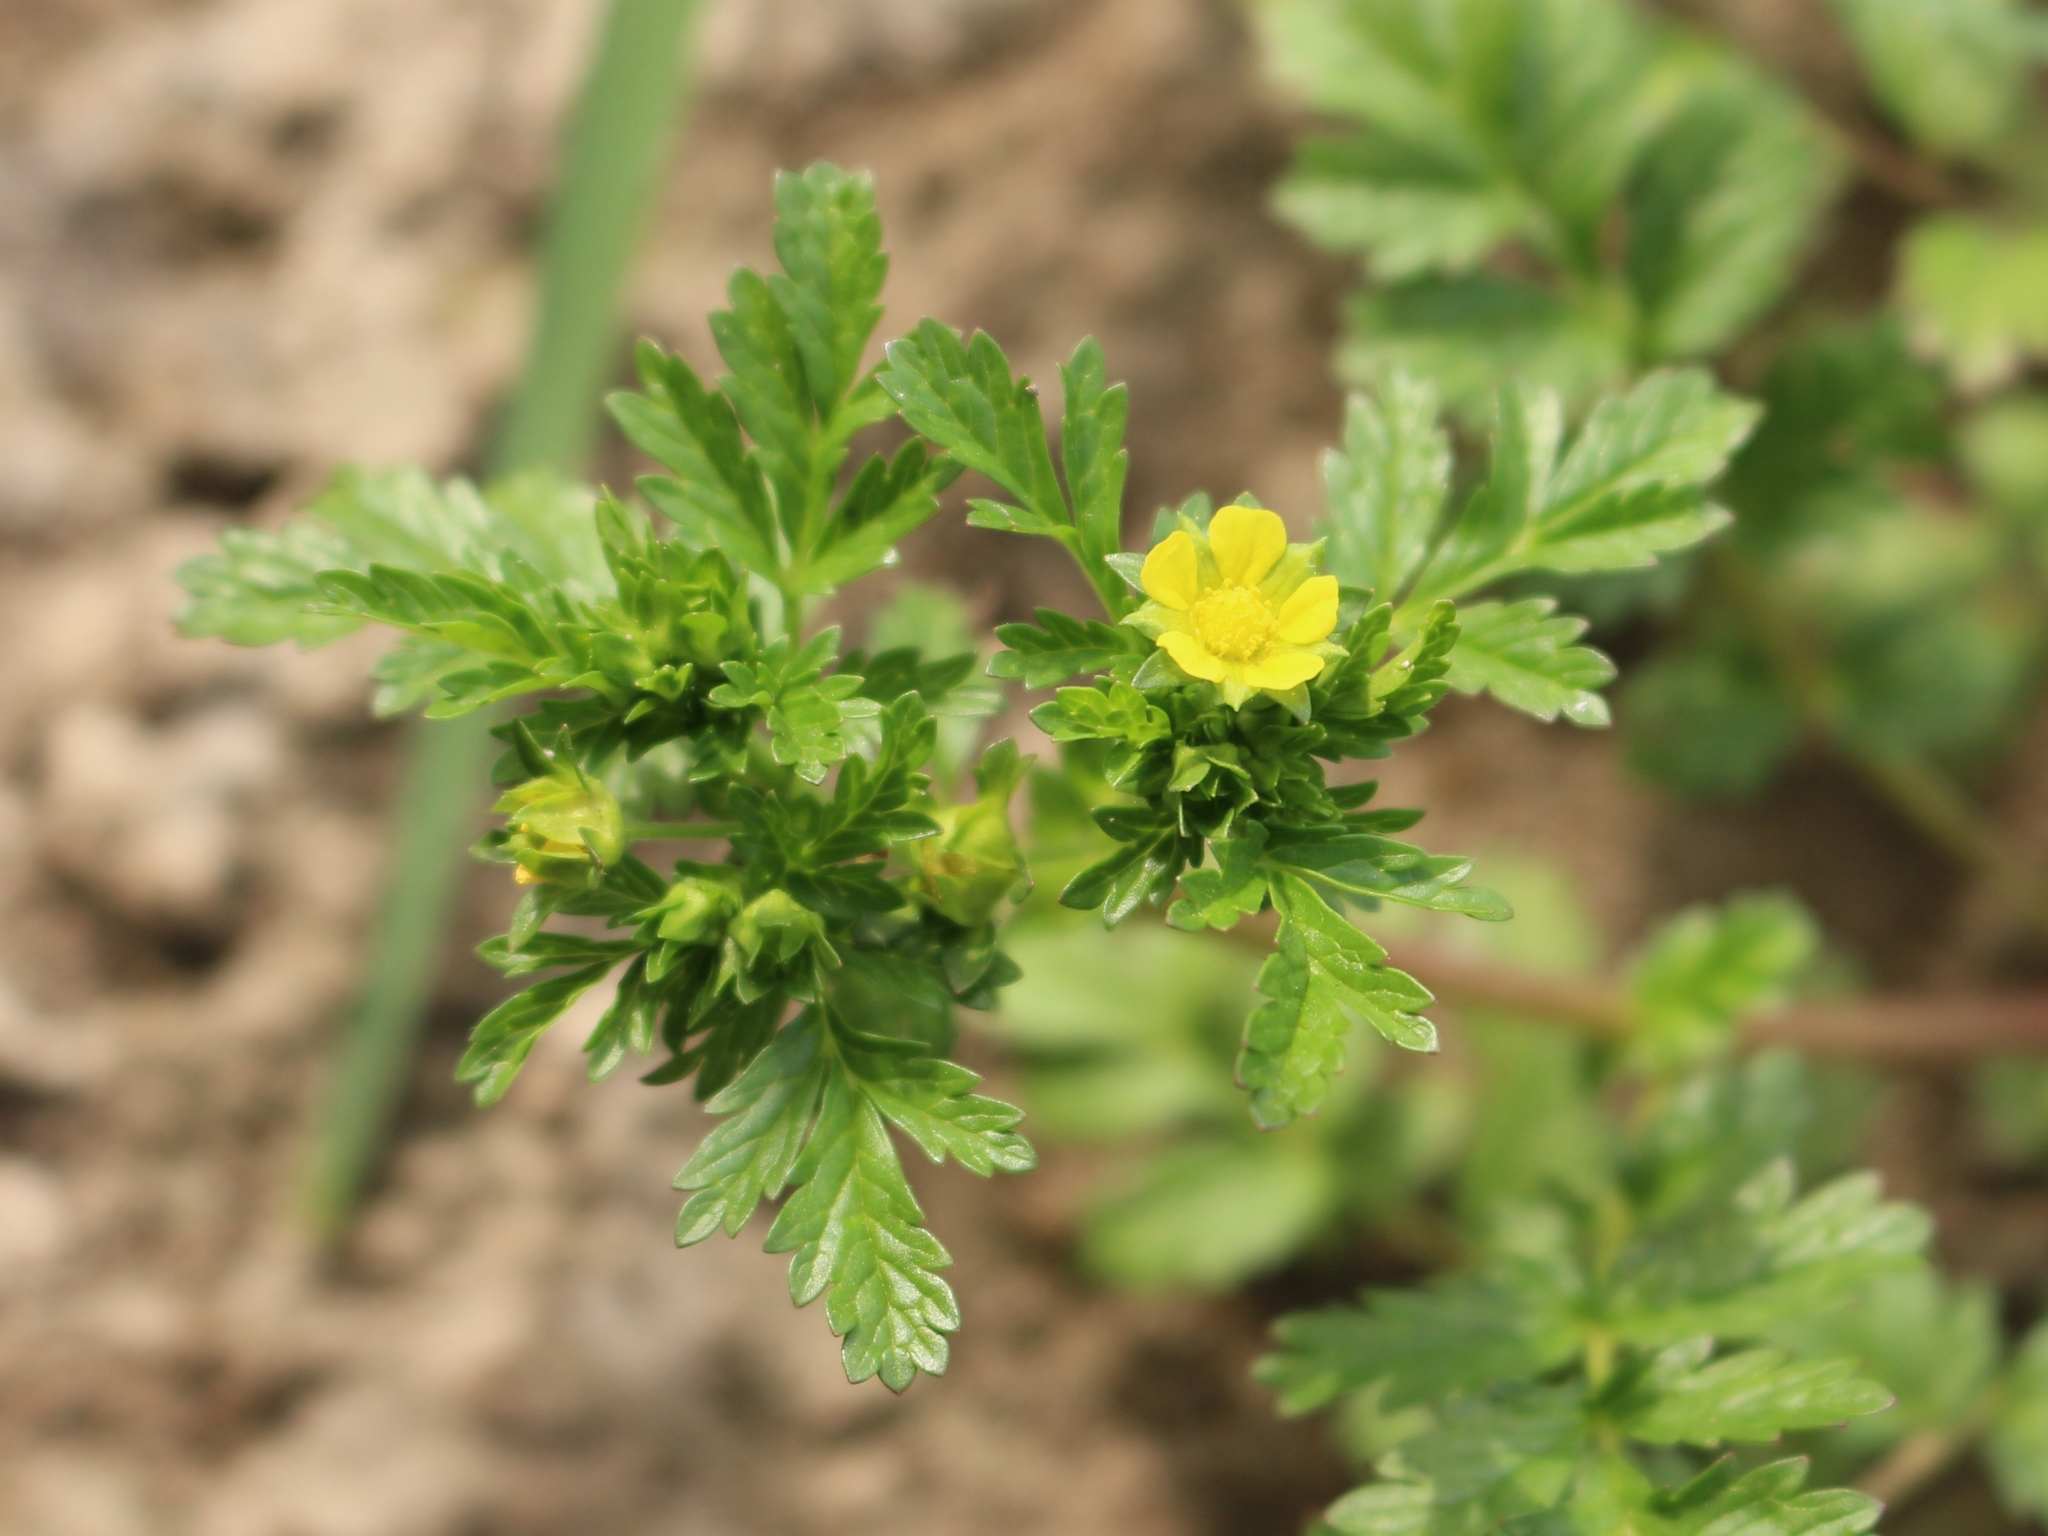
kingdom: Plantae
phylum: Tracheophyta
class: Magnoliopsida
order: Rosales
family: Rosaceae
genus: Potentilla
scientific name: Potentilla supina
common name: Prostrate cinquefoil
